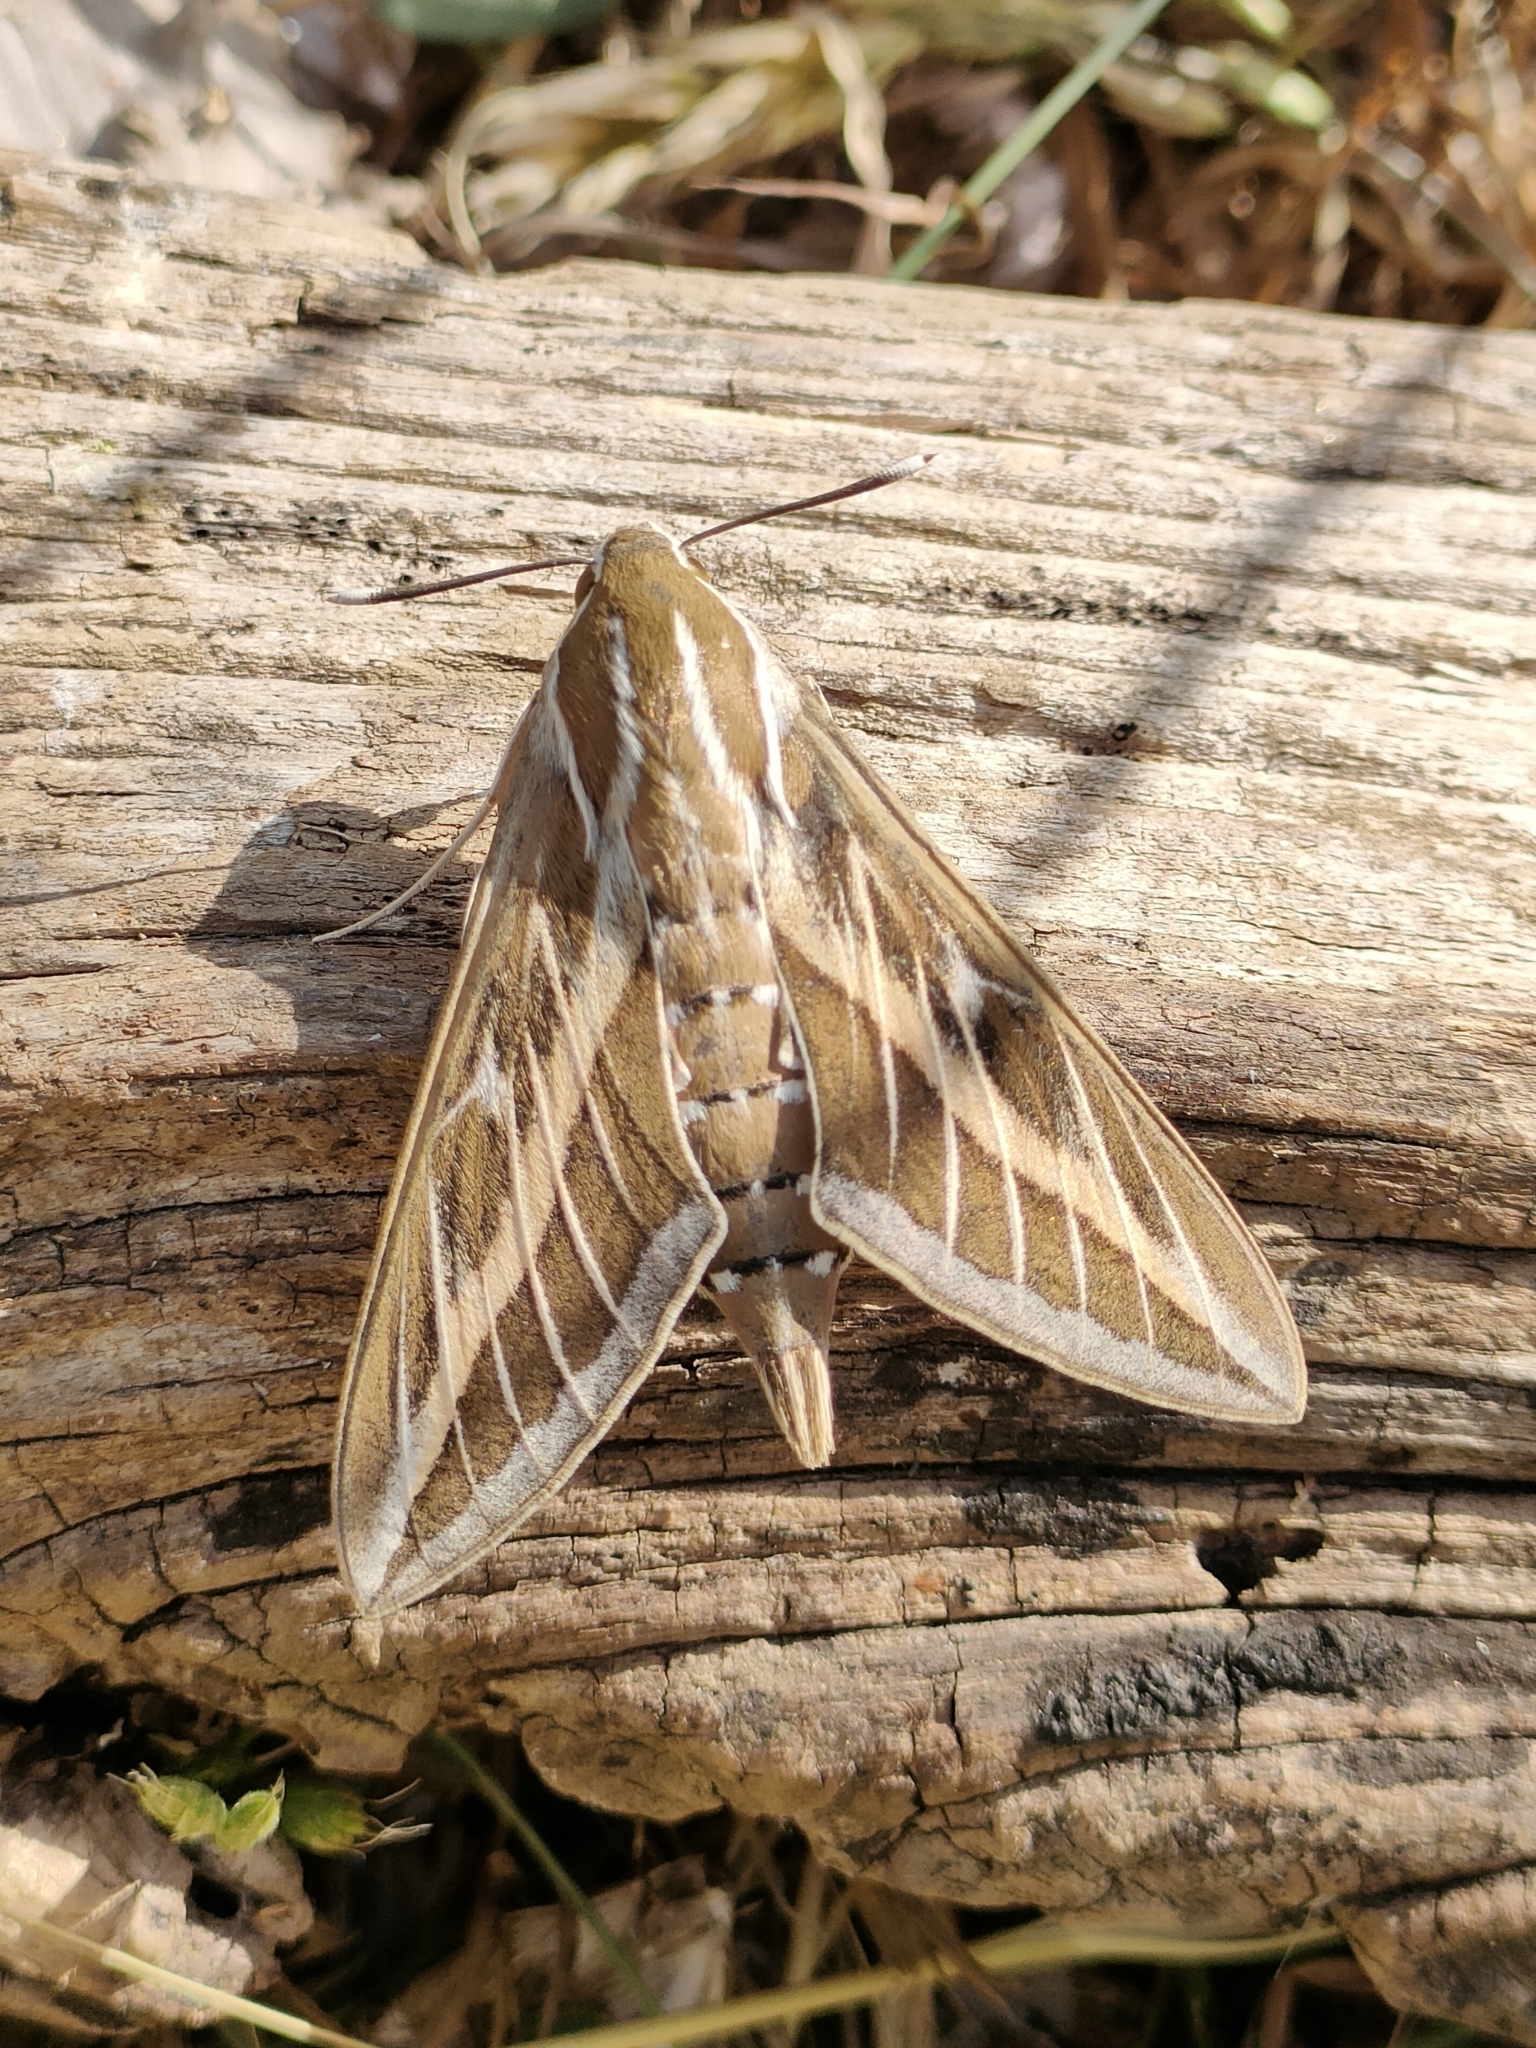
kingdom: Animalia
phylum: Arthropoda
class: Insecta
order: Lepidoptera
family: Sphingidae
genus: Hyles
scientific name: Hyles livornica
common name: Striped hawk-moth
